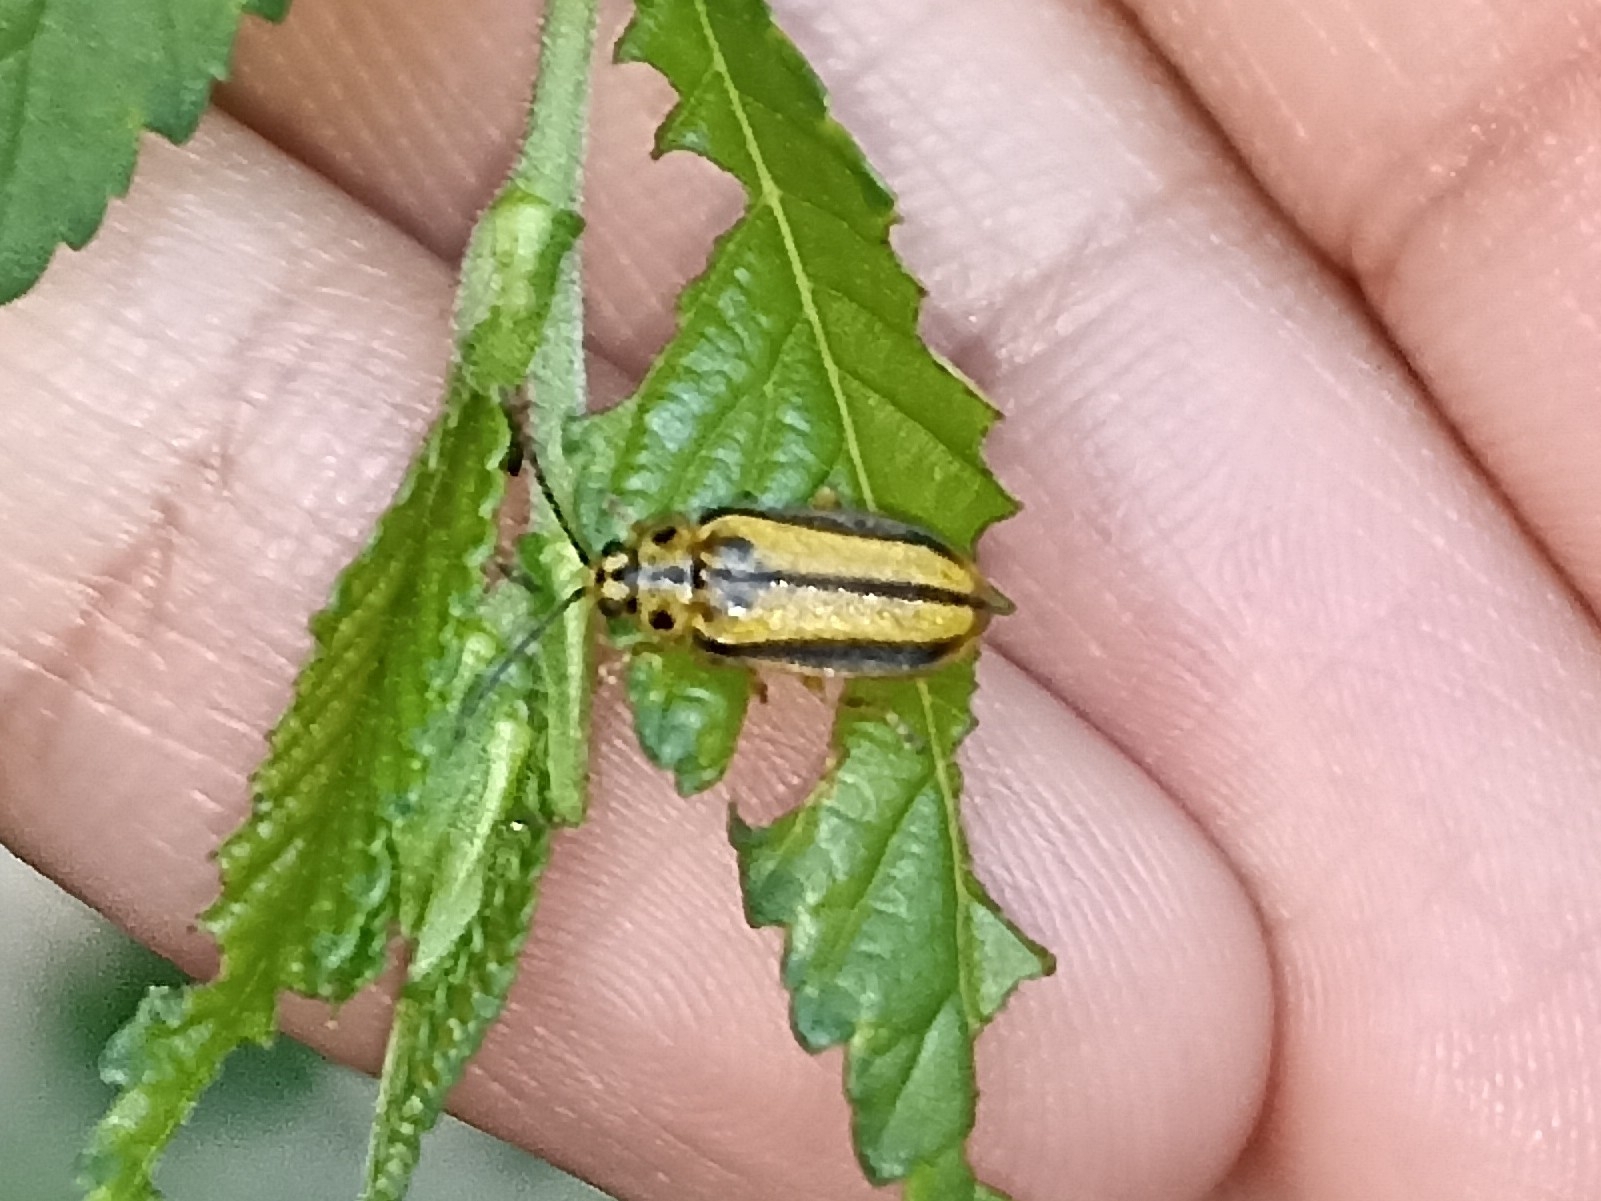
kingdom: Animalia
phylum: Arthropoda
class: Insecta
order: Coleoptera
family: Chrysomelidae
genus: Xanthogaleruca
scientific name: Xanthogaleruca luteola
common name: Elm leaf beetle
